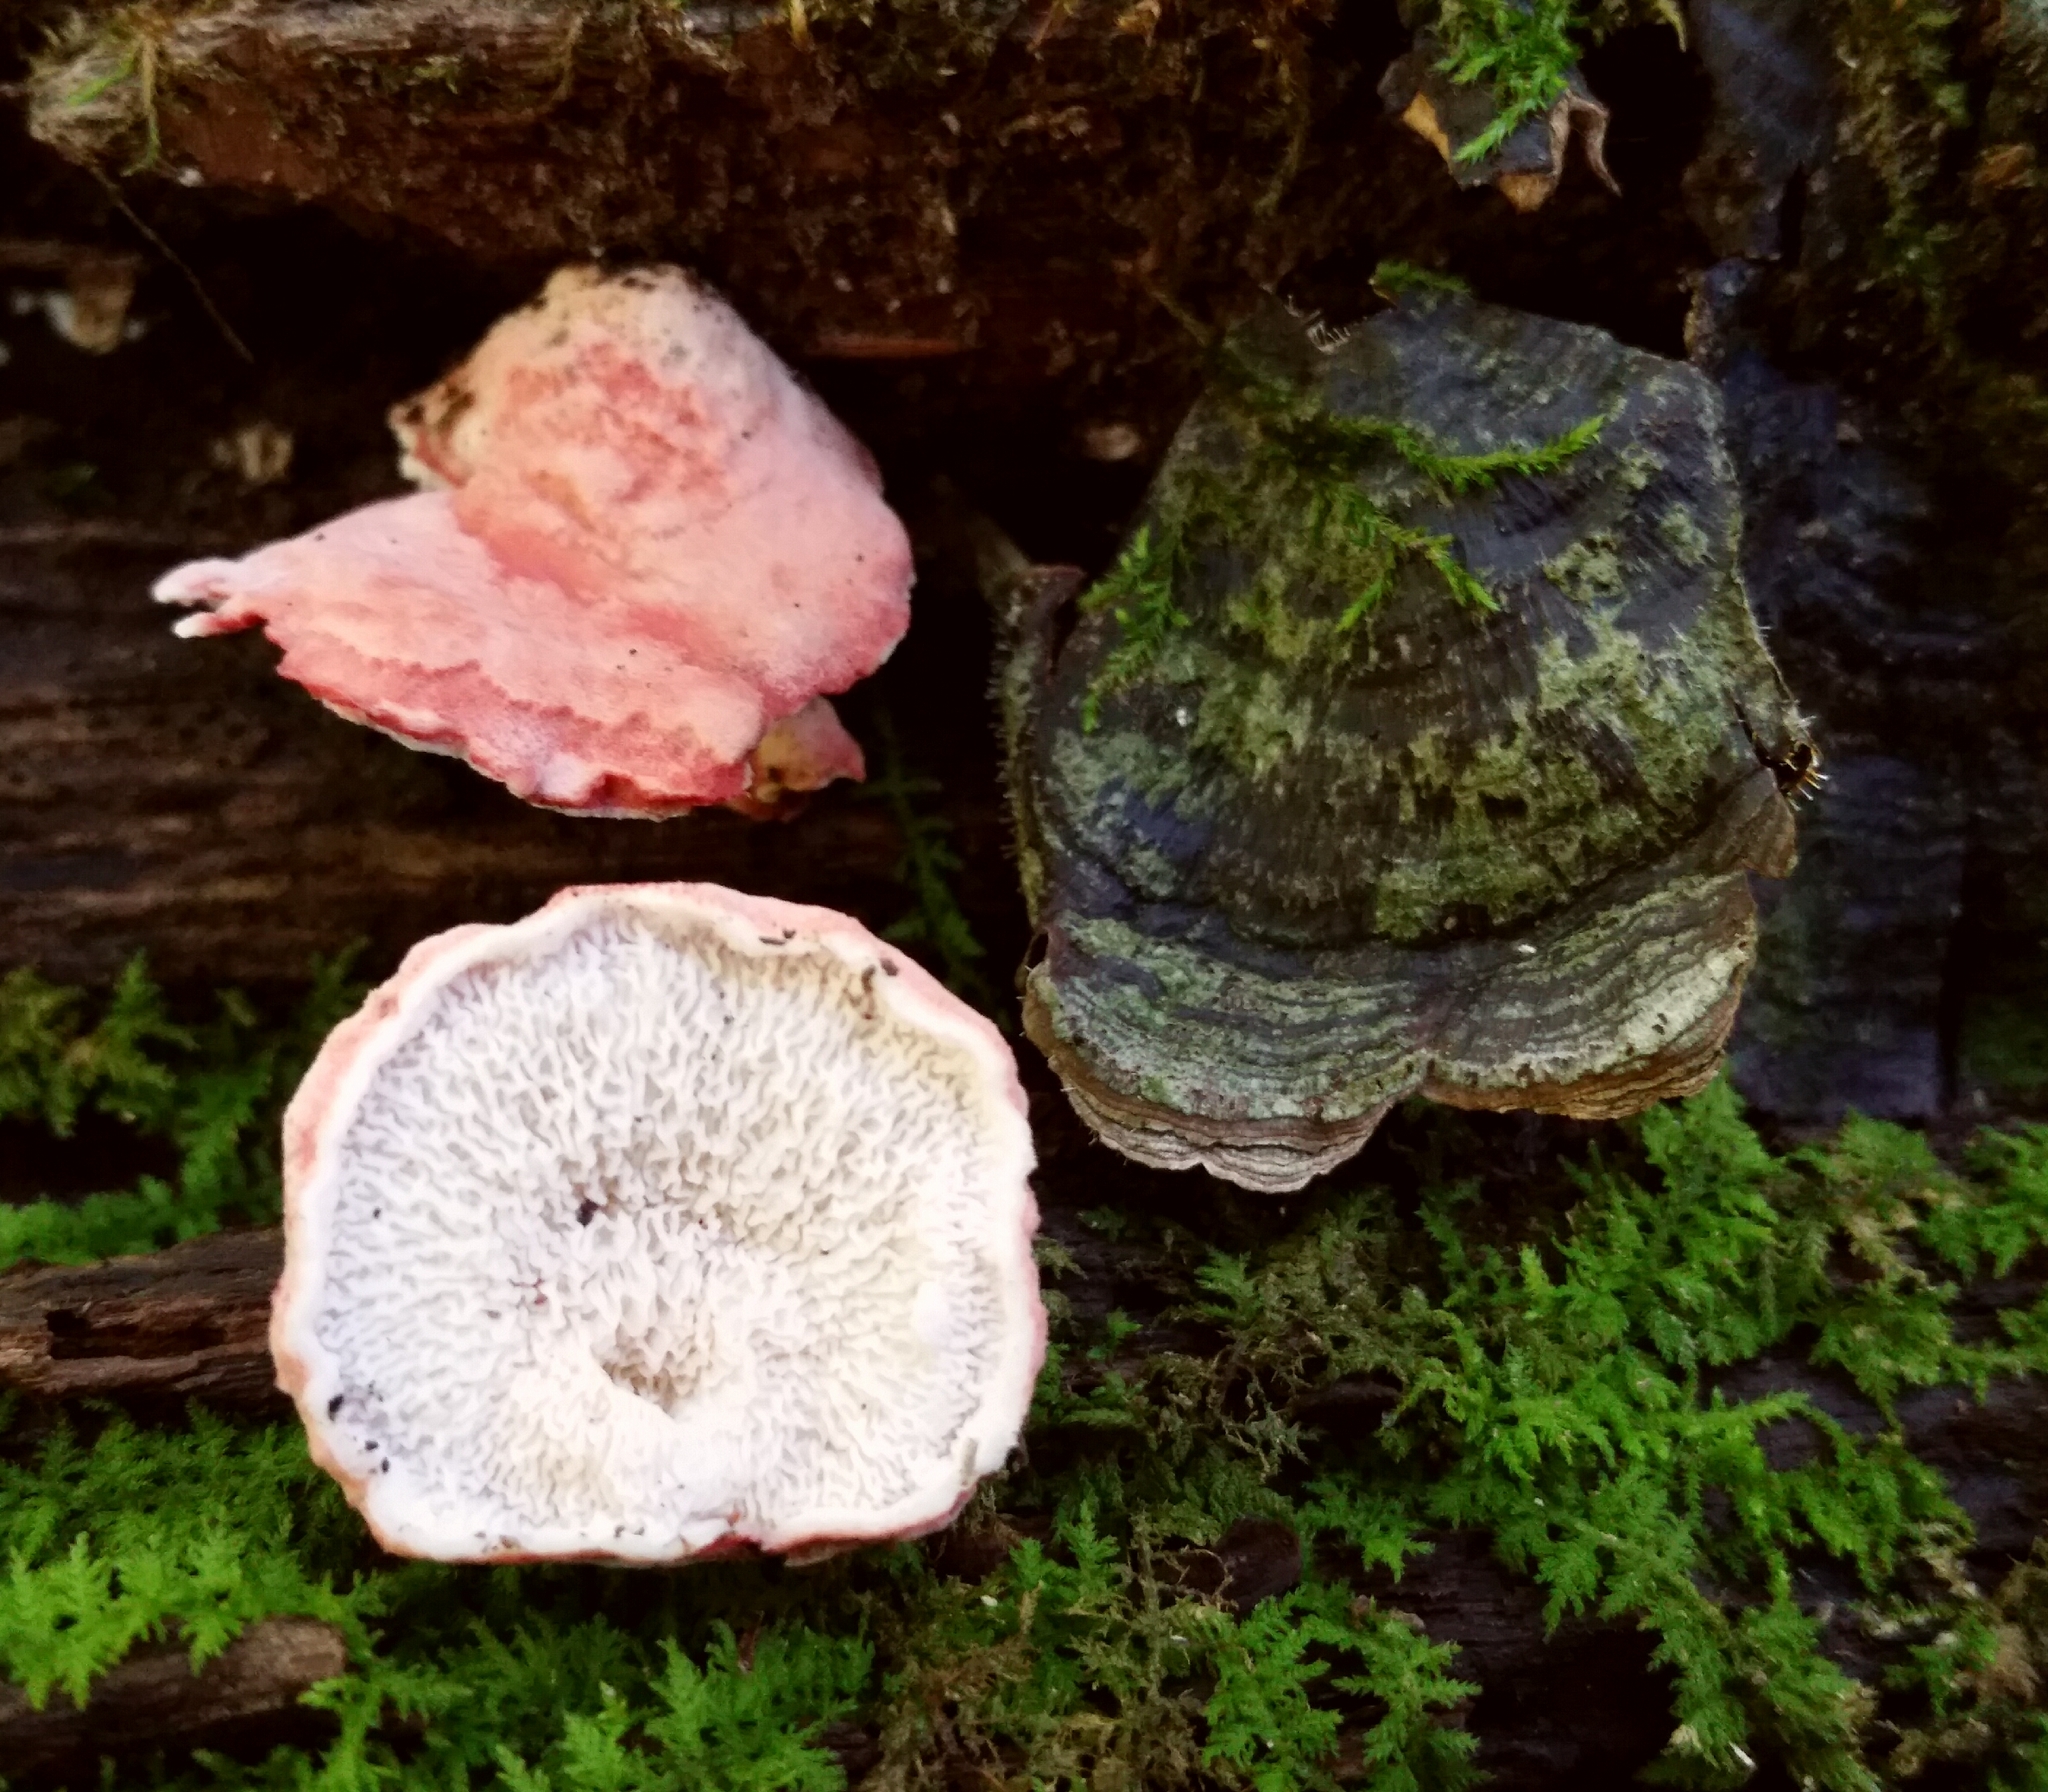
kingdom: Fungi
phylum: Basidiomycota
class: Agaricomycetes
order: Polyporales
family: Irpicaceae
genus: Byssomerulius
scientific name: Byssomerulius incarnatus
